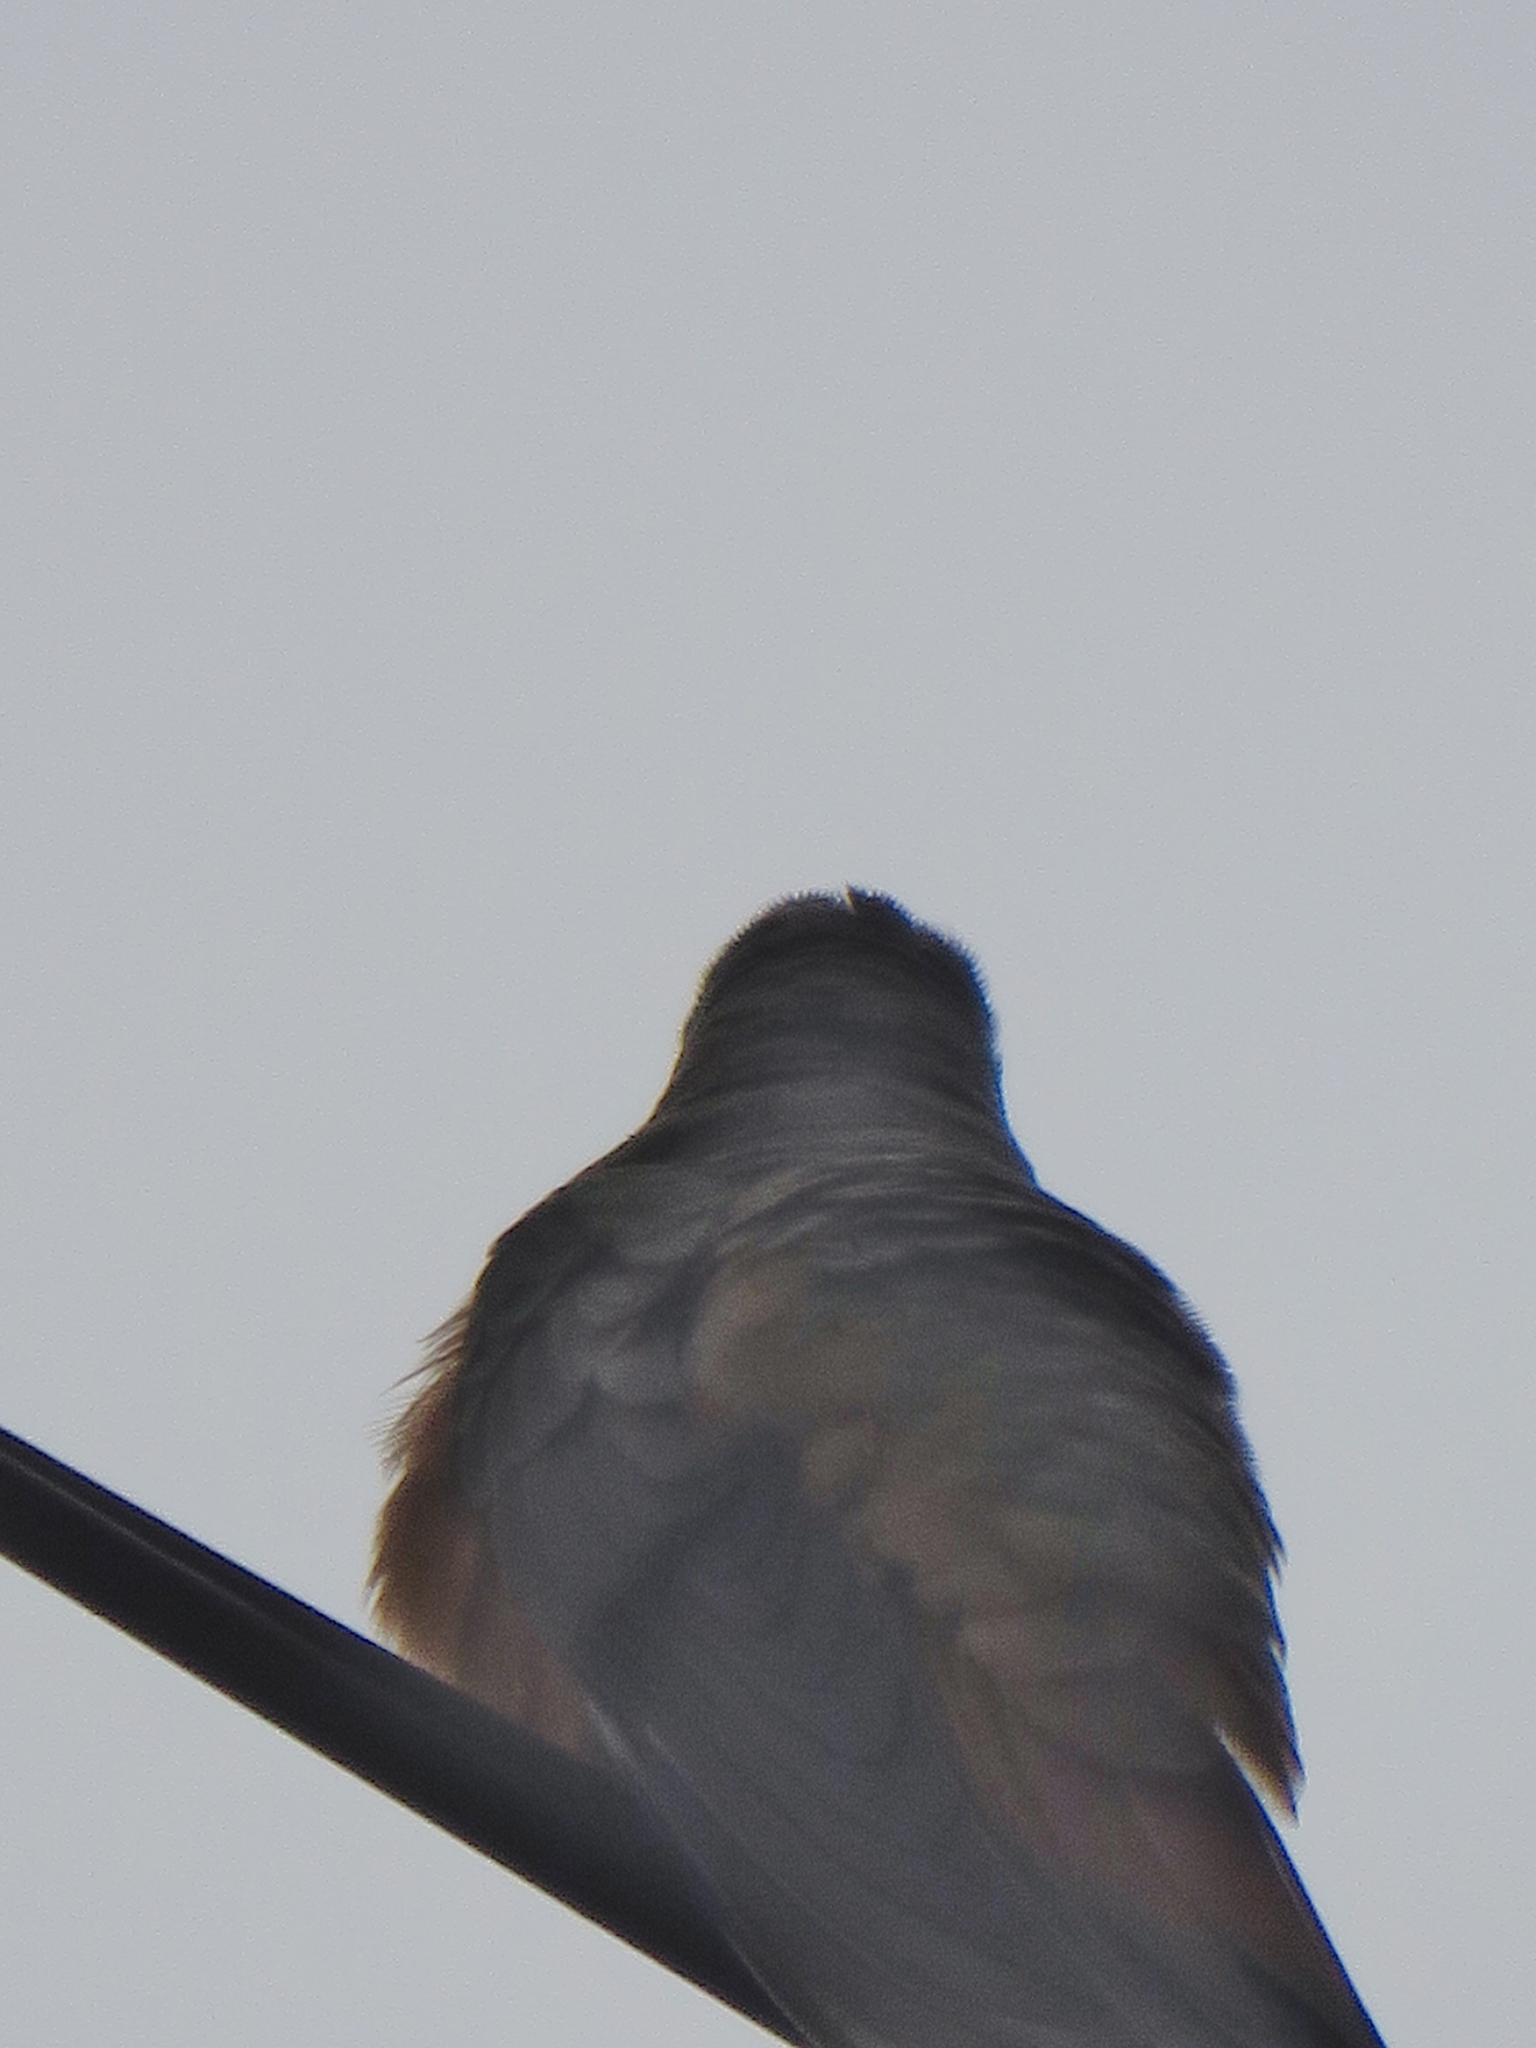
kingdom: Animalia
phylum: Chordata
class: Aves
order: Apodiformes
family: Trochilidae
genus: Amazilia
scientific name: Amazilia rutila
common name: Cinnamon hummingbird
